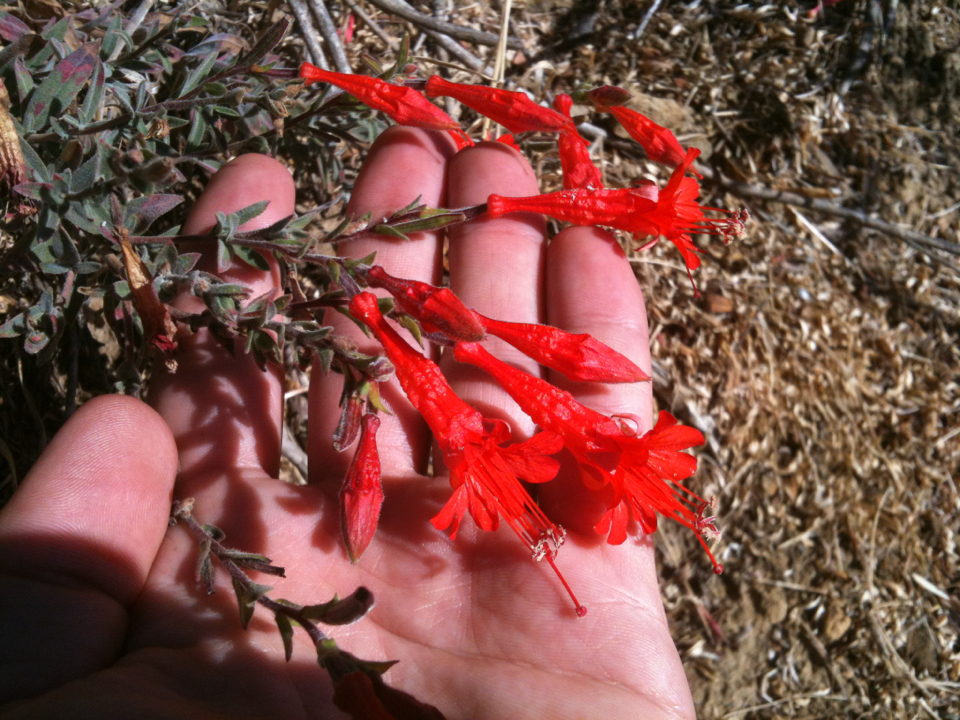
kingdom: Plantae
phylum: Tracheophyta
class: Magnoliopsida
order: Myrtales
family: Onagraceae
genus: Epilobium
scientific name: Epilobium canum
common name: California-fuchsia
